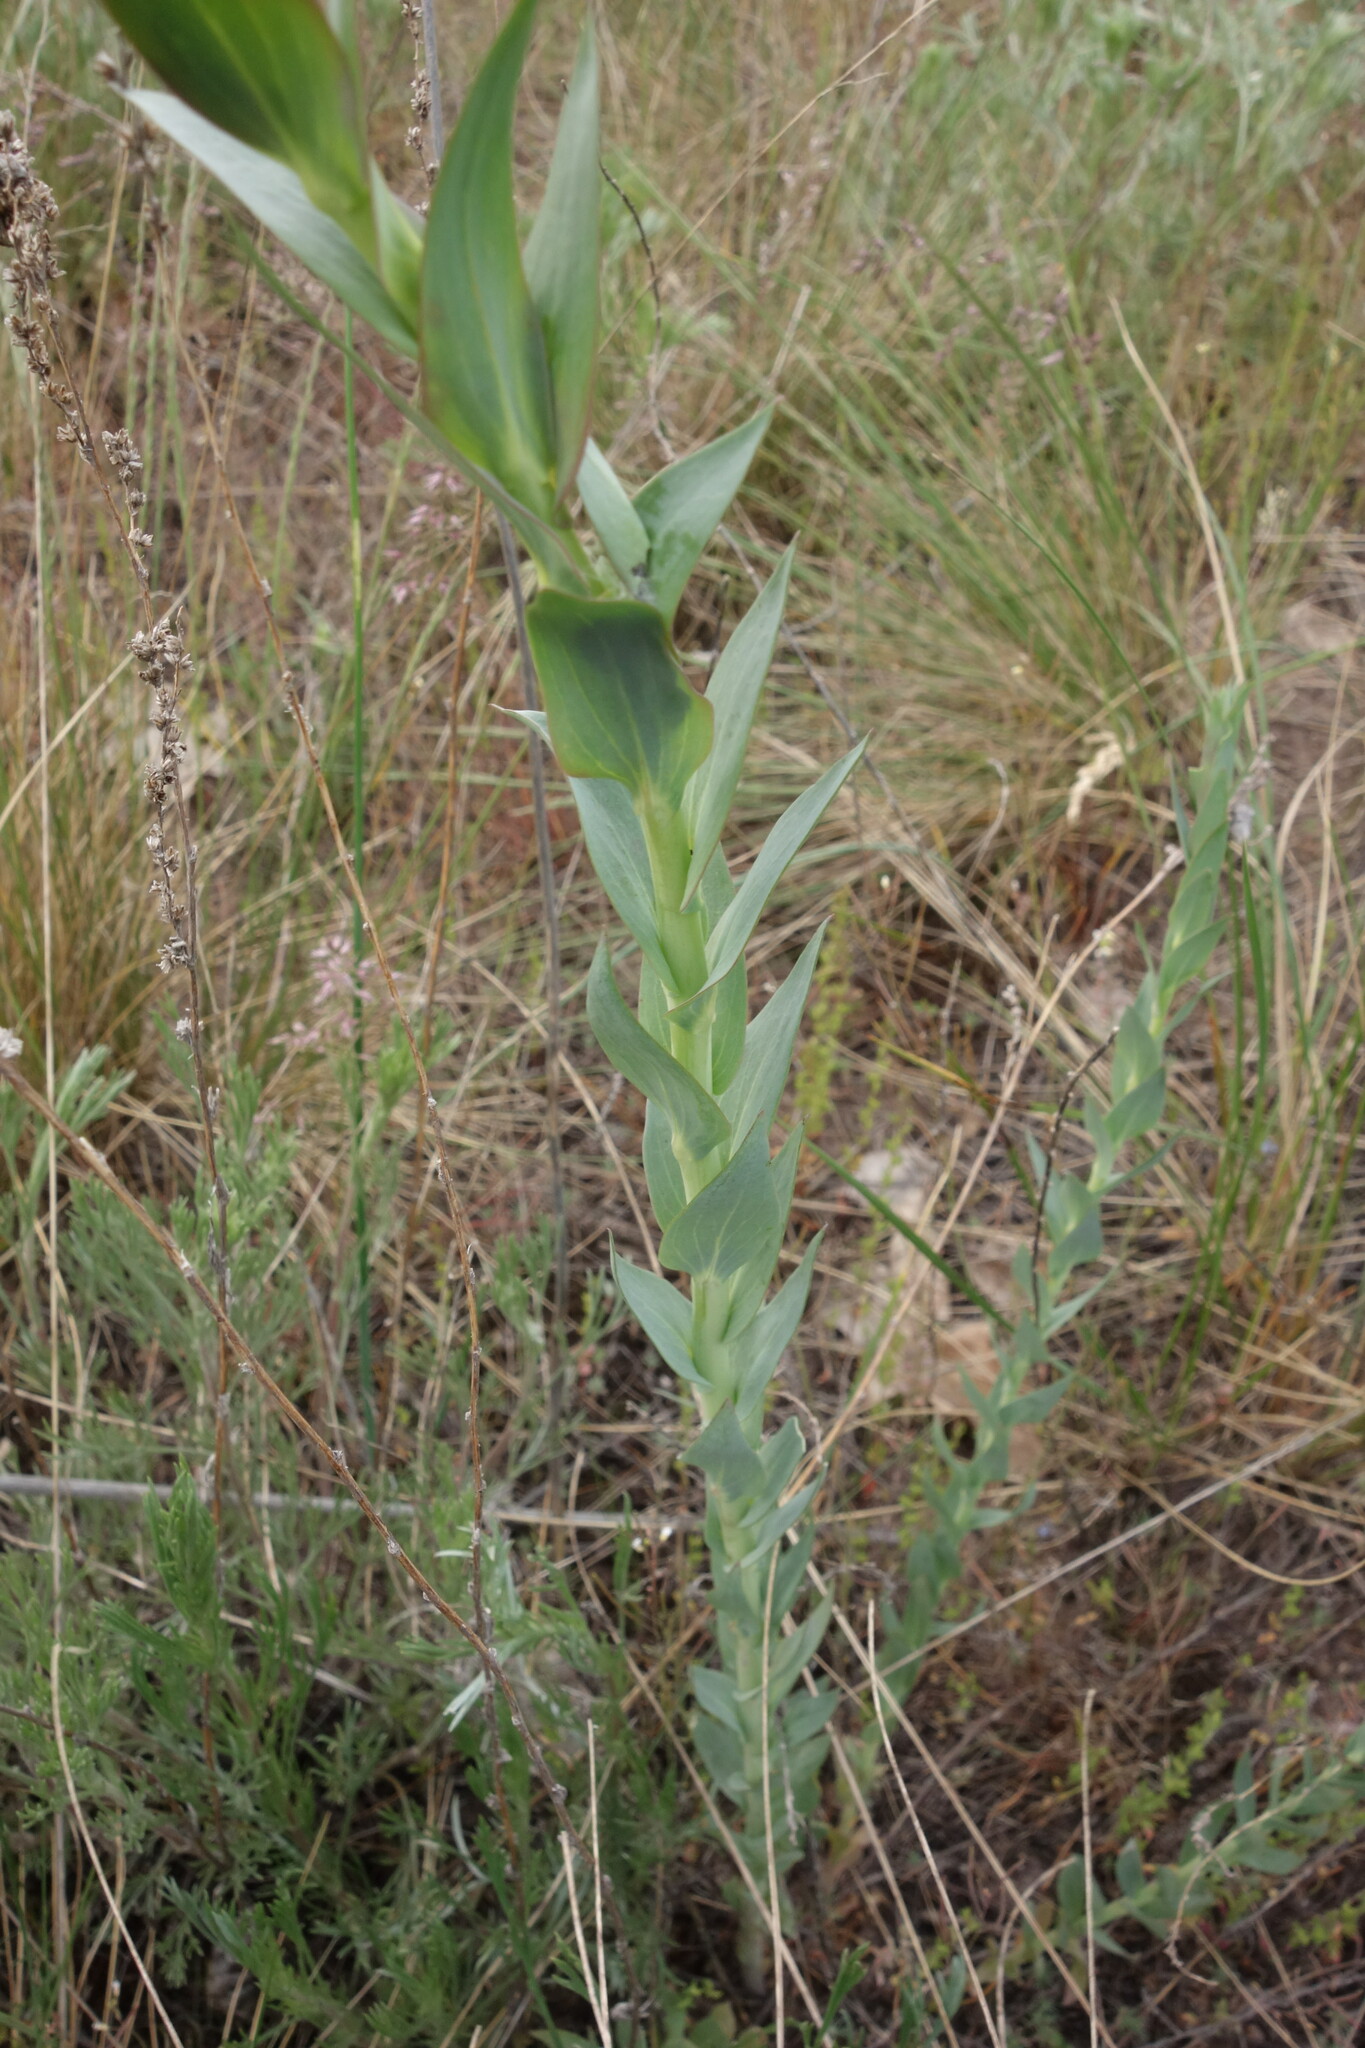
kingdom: Plantae
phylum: Tracheophyta
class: Magnoliopsida
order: Lamiales
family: Plantaginaceae
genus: Linaria
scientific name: Linaria genistifolia
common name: Broomleaf toadflax
